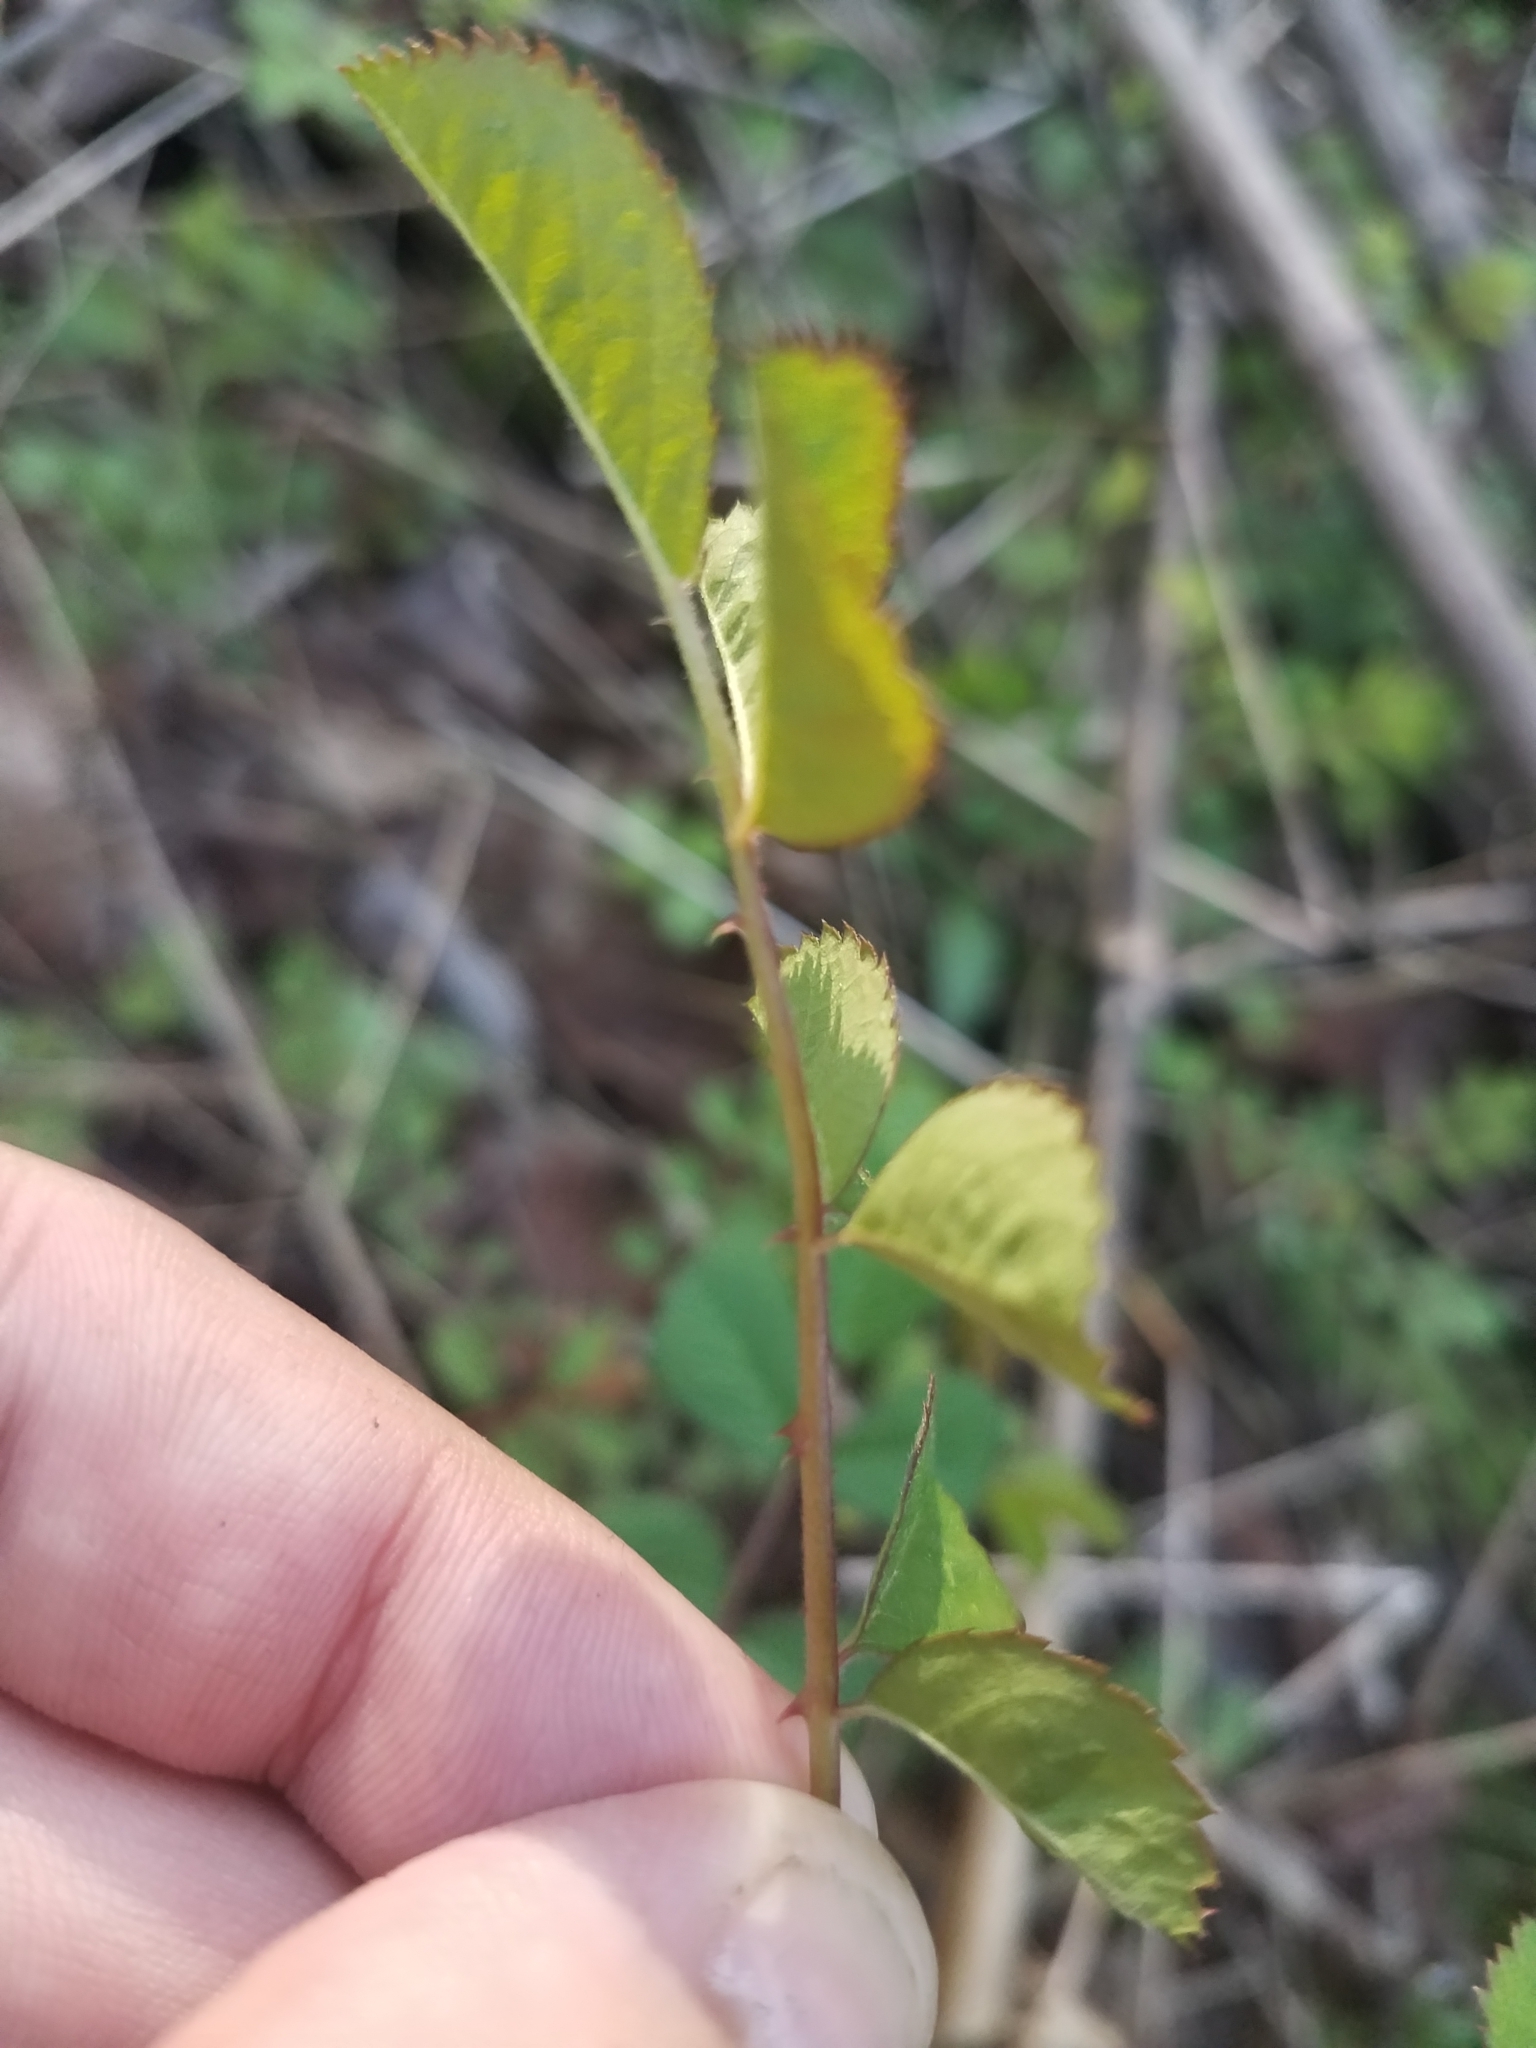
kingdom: Plantae
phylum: Tracheophyta
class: Magnoliopsida
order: Rosales
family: Rosaceae
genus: Rosa
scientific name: Rosa multiflora
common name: Multiflora rose
